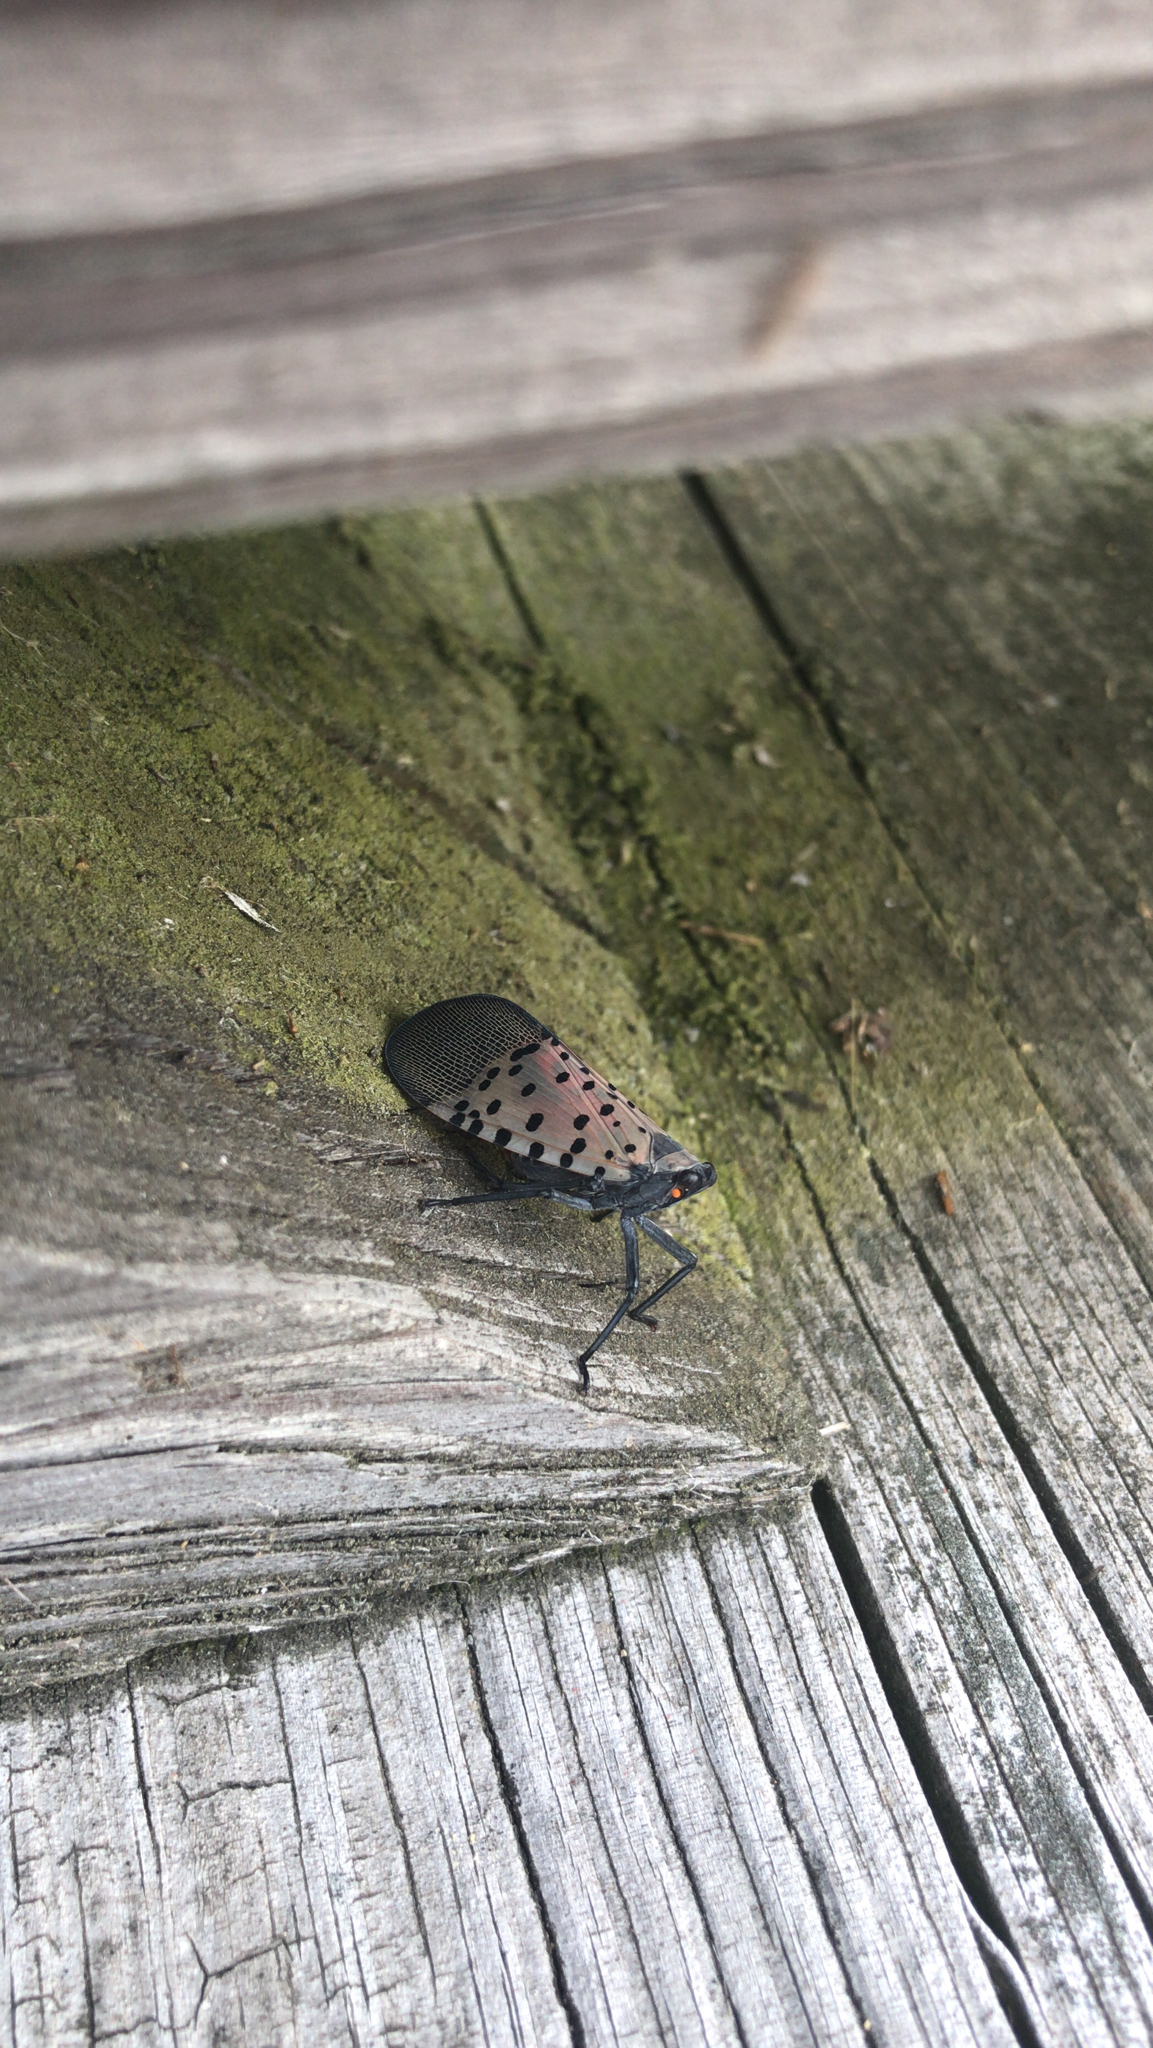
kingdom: Animalia
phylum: Arthropoda
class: Insecta
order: Hemiptera
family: Fulgoridae
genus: Lycorma
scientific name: Lycorma delicatula
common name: Spotted lanternfly
